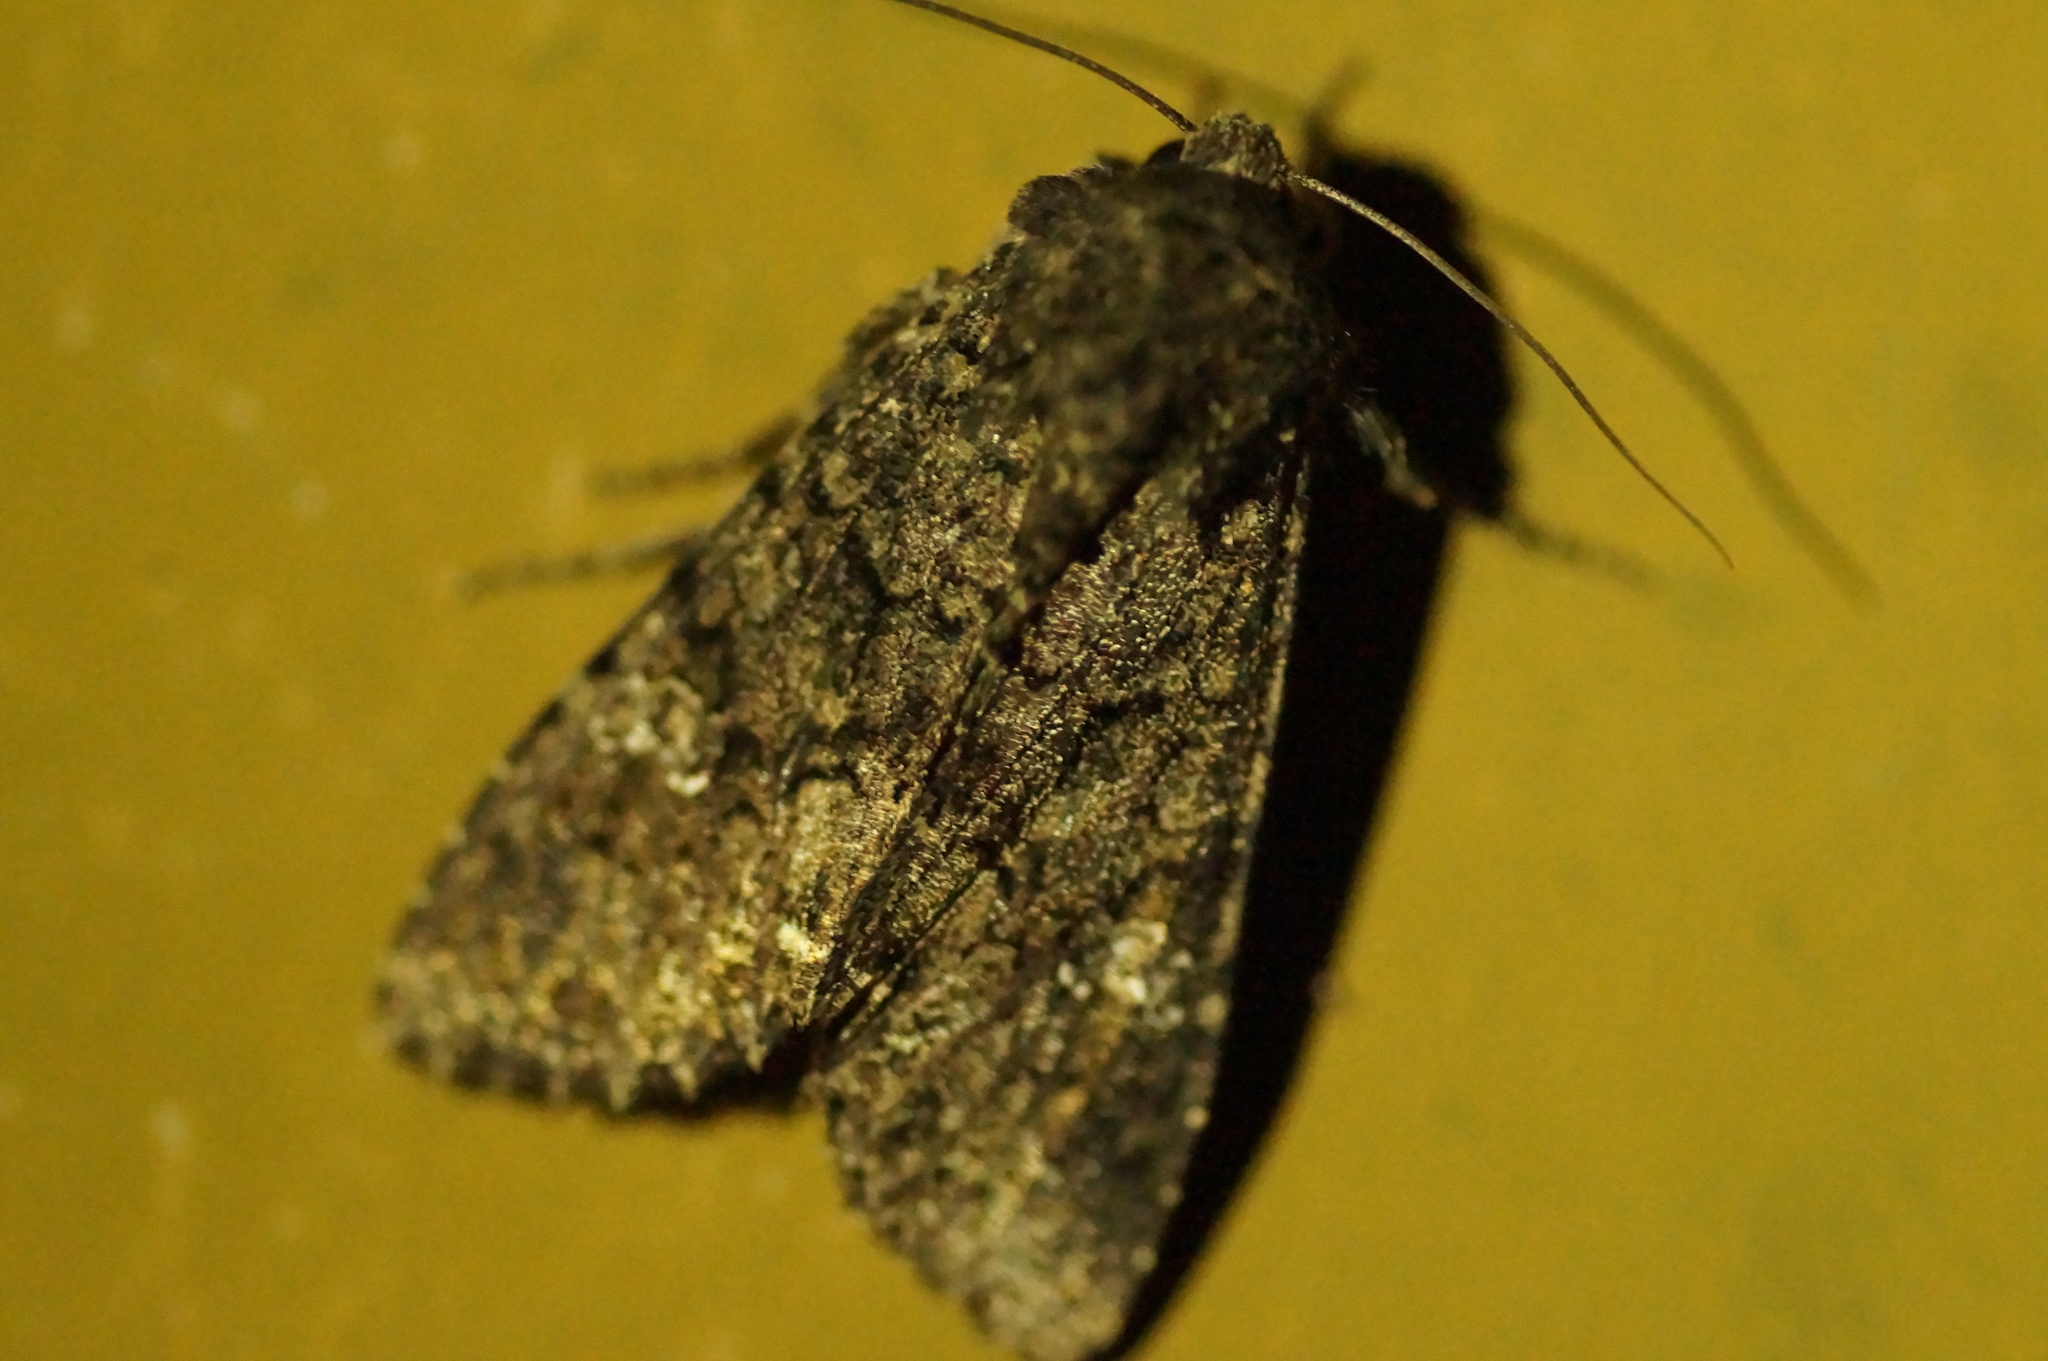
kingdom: Animalia
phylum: Arthropoda
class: Insecta
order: Lepidoptera
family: Noctuidae
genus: Mamestra
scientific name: Mamestra brassicae
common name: Cabbage moth
